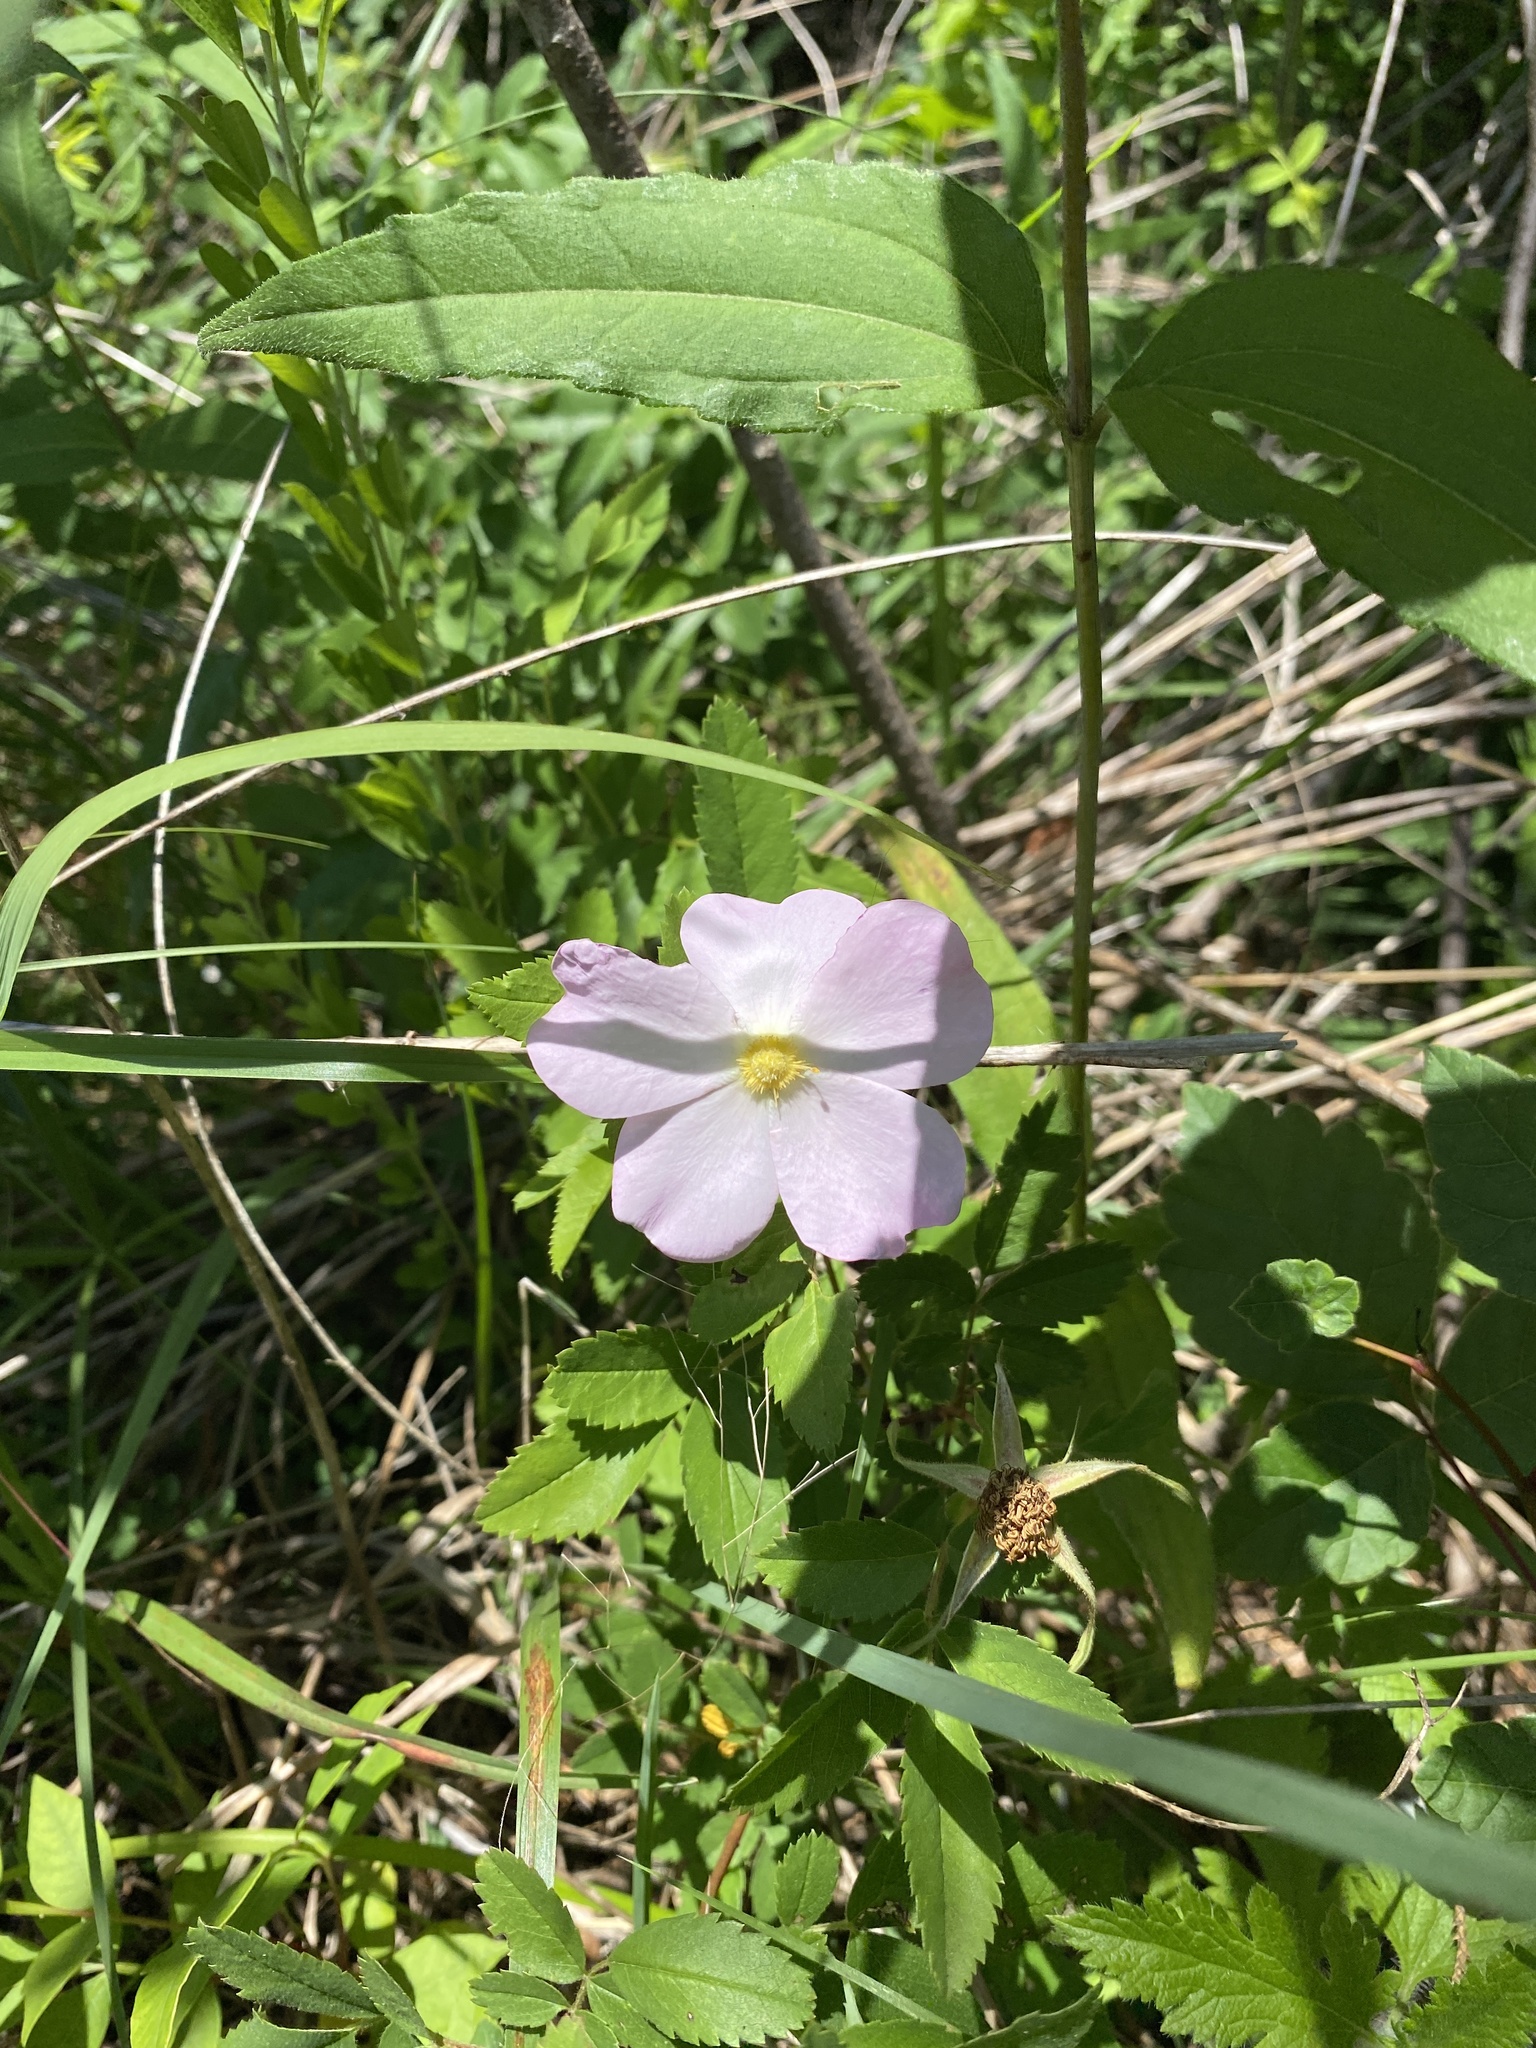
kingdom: Plantae
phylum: Tracheophyta
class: Magnoliopsida
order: Rosales
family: Rosaceae
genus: Rosa
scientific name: Rosa carolina
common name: Pasture rose
